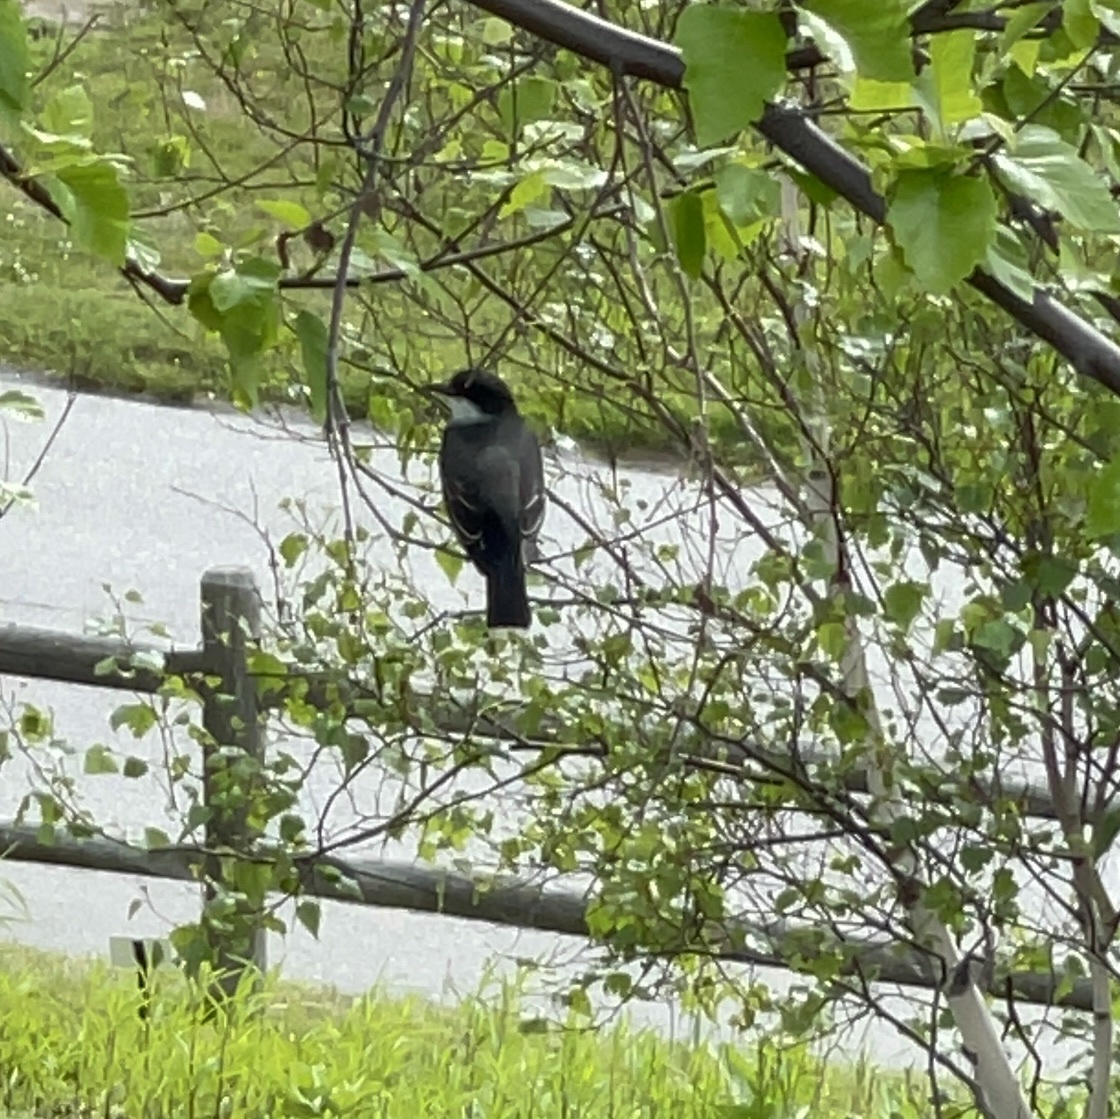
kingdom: Animalia
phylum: Chordata
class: Aves
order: Passeriformes
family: Tyrannidae
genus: Tyrannus
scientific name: Tyrannus tyrannus
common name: Eastern kingbird
